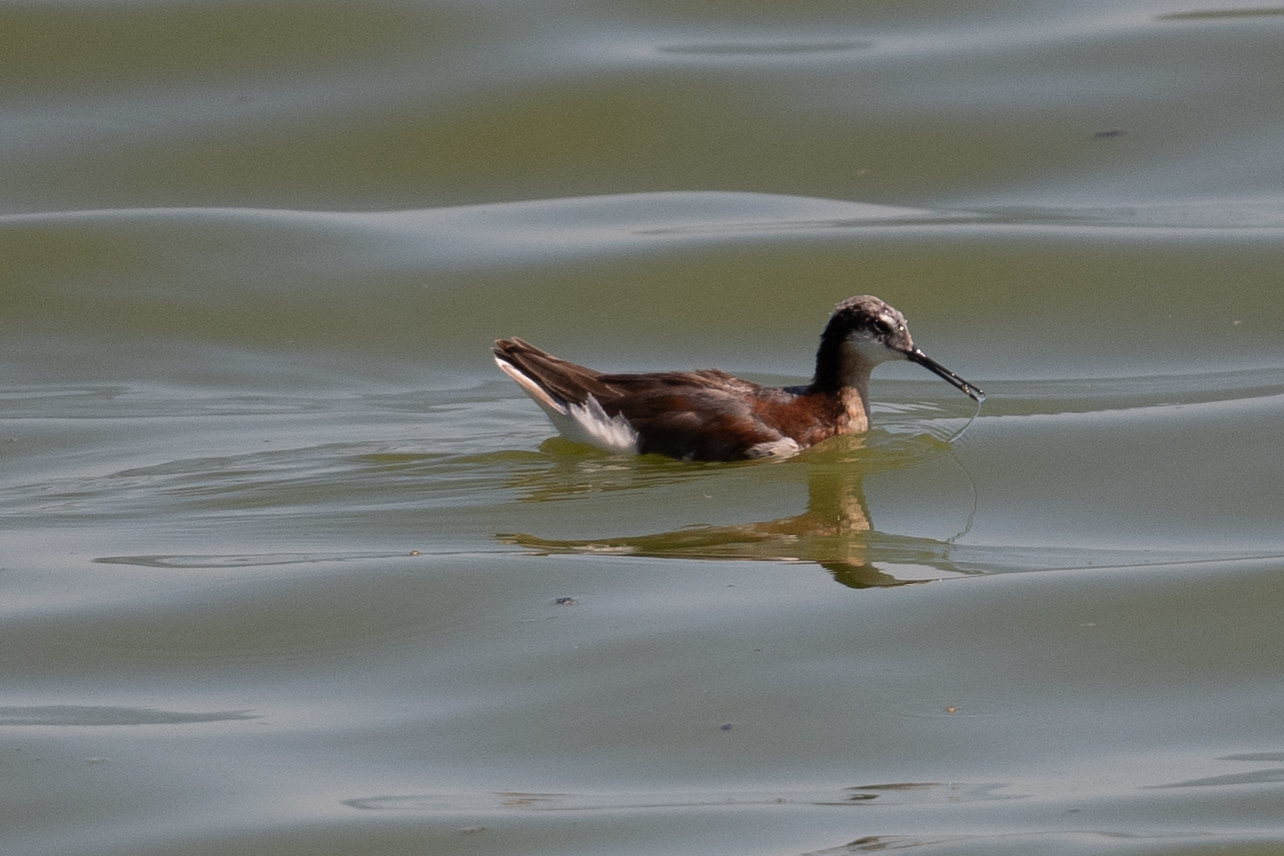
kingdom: Animalia
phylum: Chordata
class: Aves
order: Charadriiformes
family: Scolopacidae
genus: Phalaropus
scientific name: Phalaropus tricolor
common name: Wilson's phalarope
